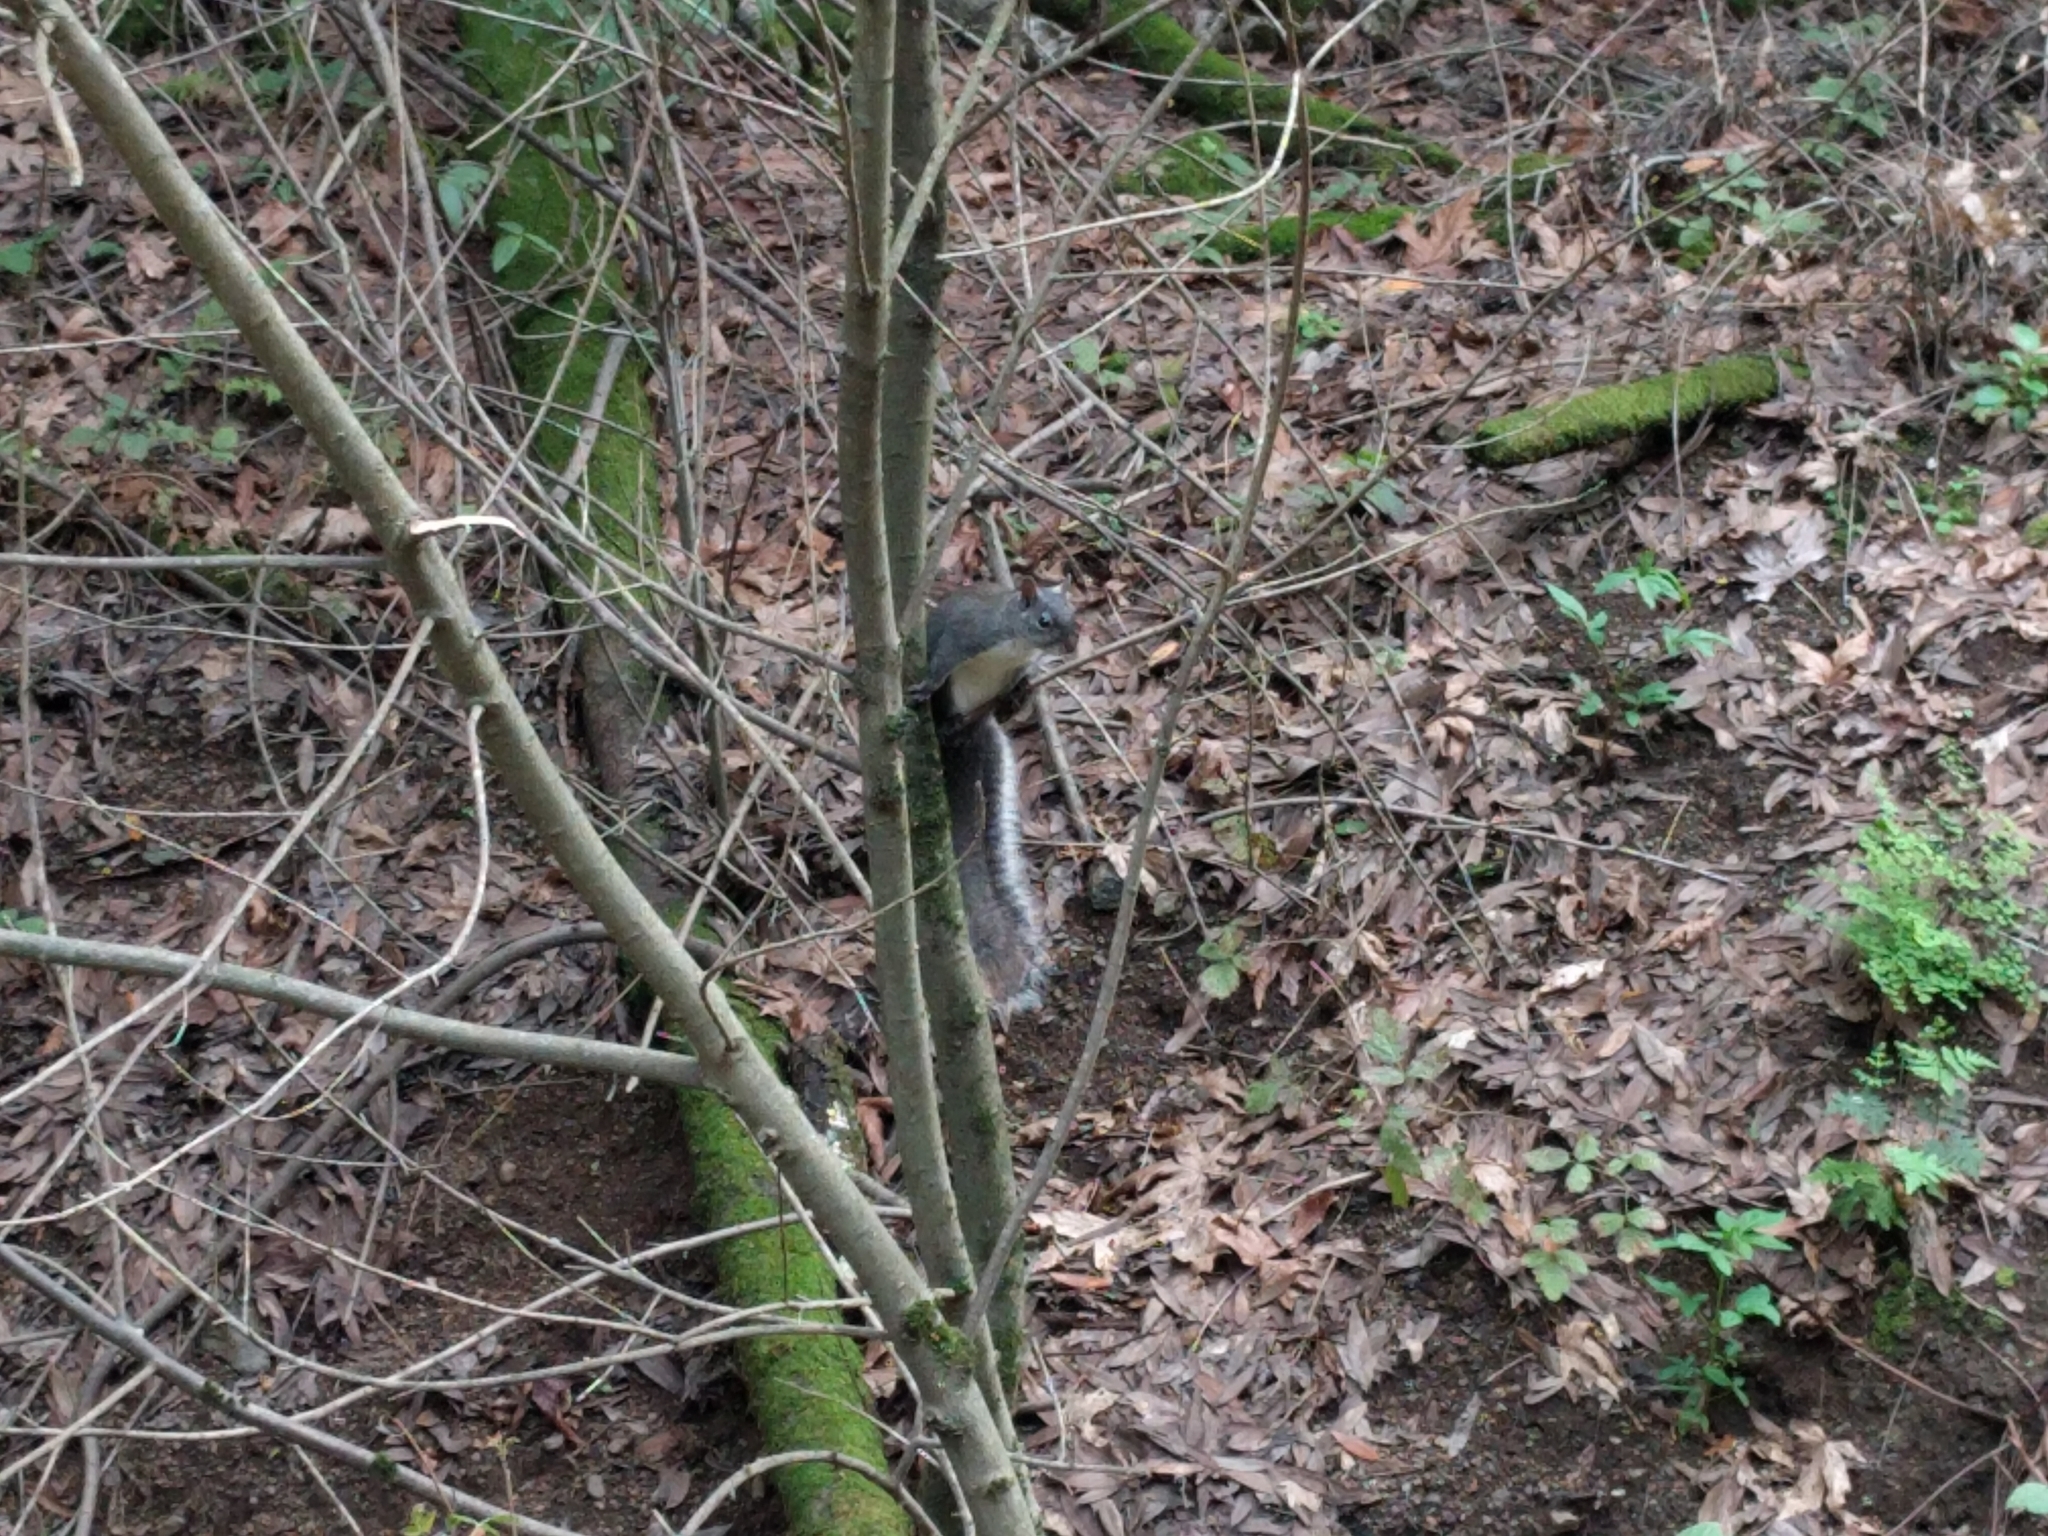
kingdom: Animalia
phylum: Chordata
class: Mammalia
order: Rodentia
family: Sciuridae
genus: Sciurus
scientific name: Sciurus griseus
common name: Western gray squirrel
